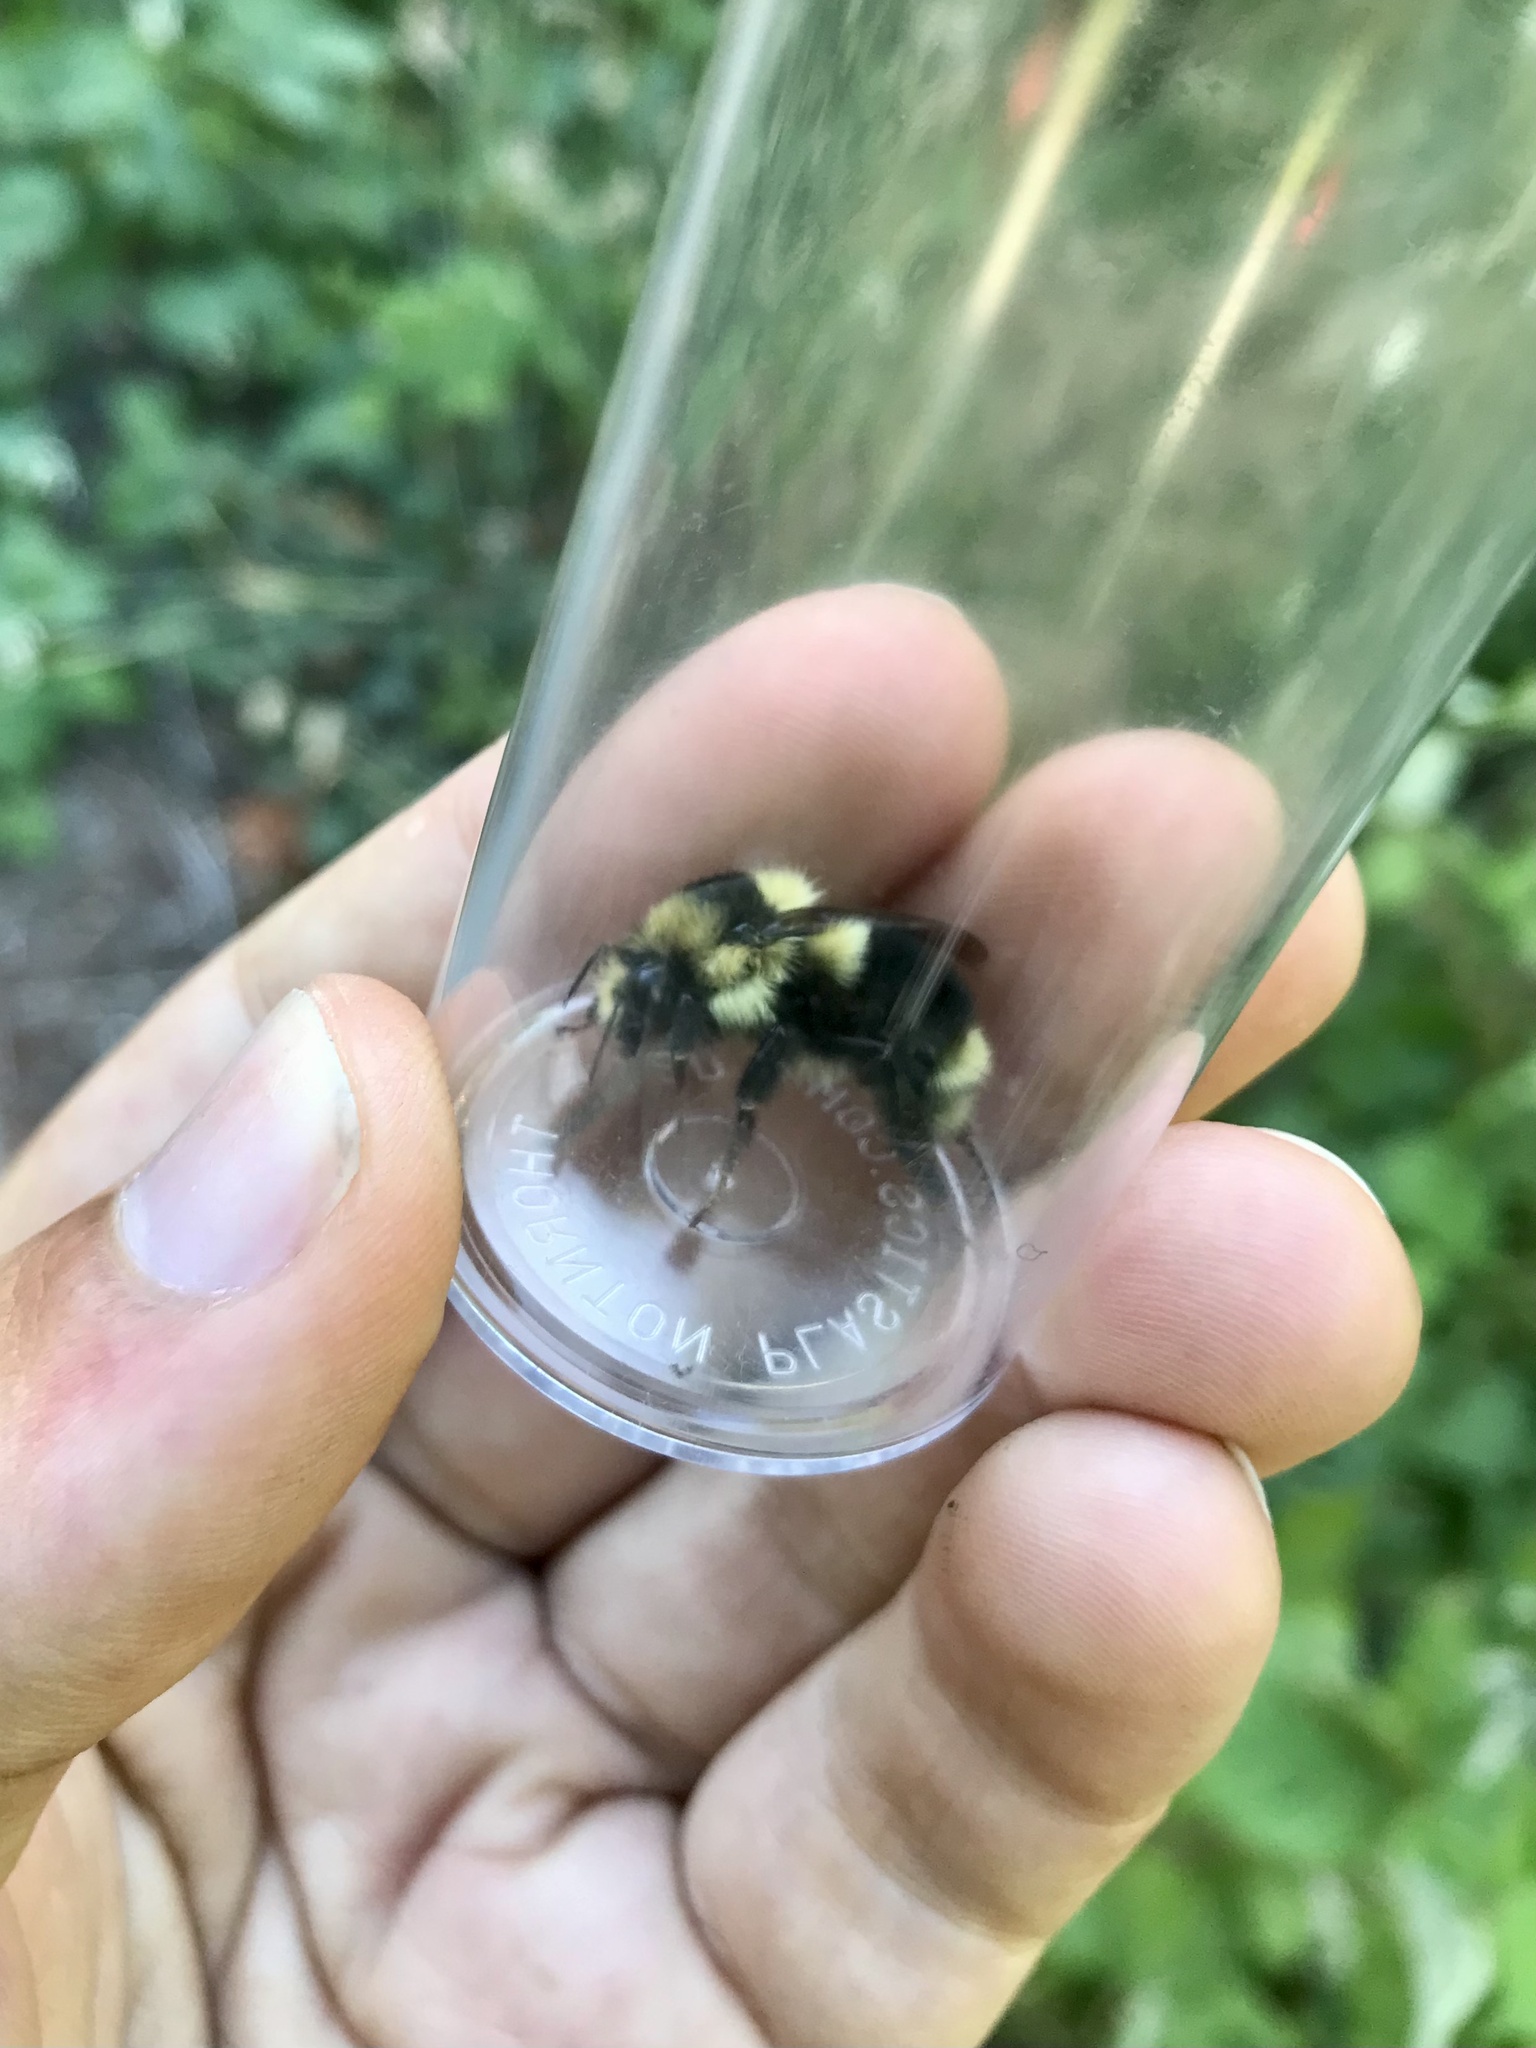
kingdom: Animalia
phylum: Arthropoda
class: Insecta
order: Hymenoptera
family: Apidae
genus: Bombus
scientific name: Bombus melanopygus
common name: Black tail bumble bee
